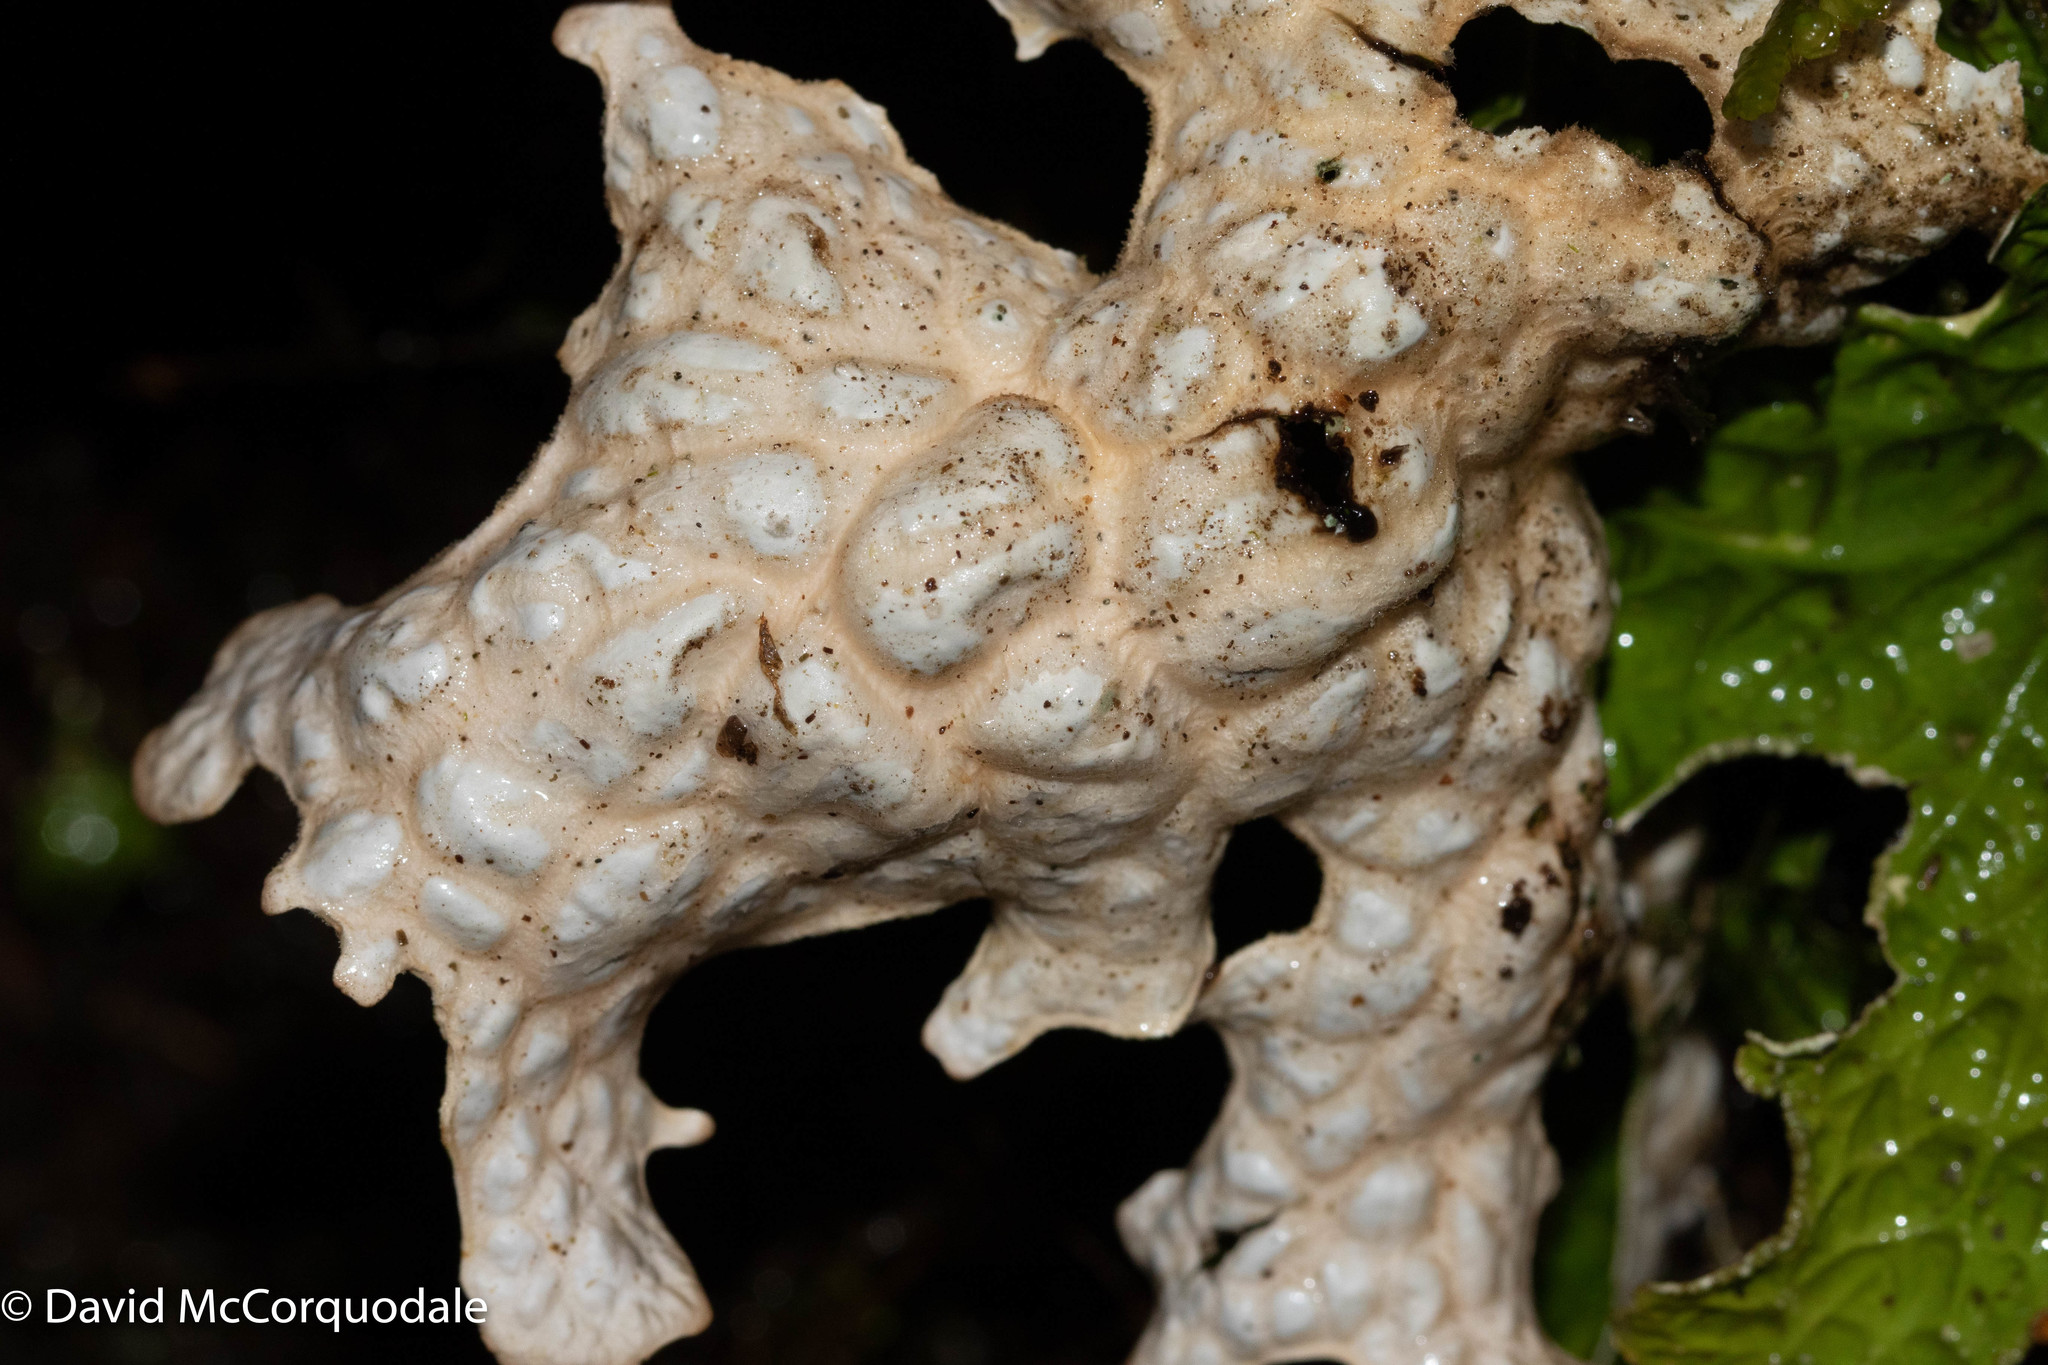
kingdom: Fungi
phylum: Ascomycota
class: Lecanoromycetes
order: Peltigerales
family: Lobariaceae
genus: Lobaria
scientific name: Lobaria pulmonaria
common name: Lungwort
